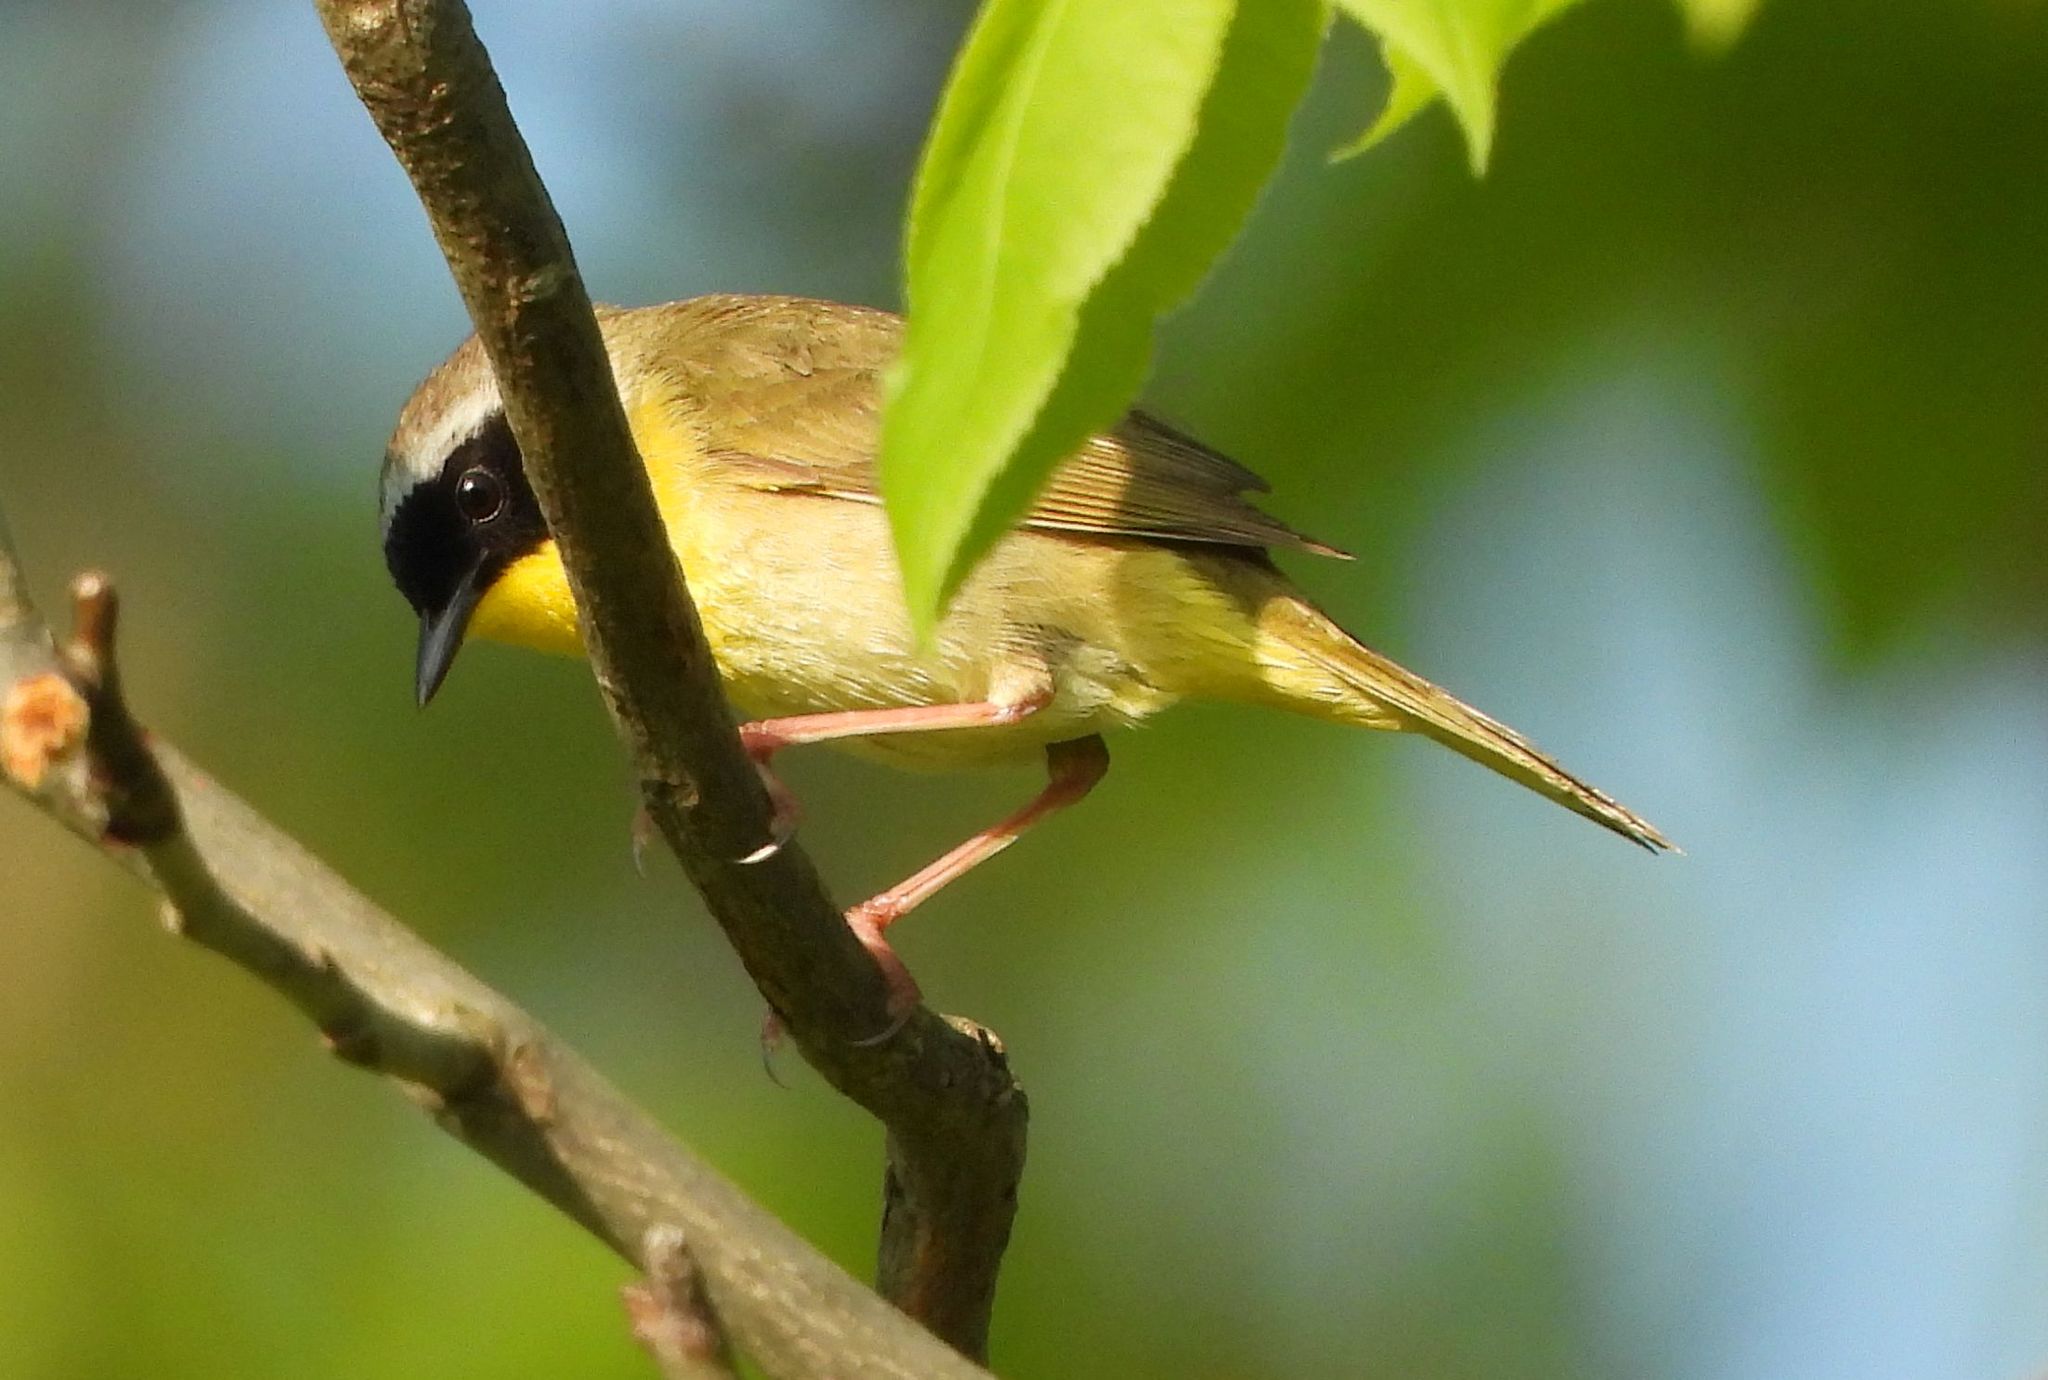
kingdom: Animalia
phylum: Chordata
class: Aves
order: Passeriformes
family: Parulidae
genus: Geothlypis
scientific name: Geothlypis trichas
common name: Common yellowthroat
